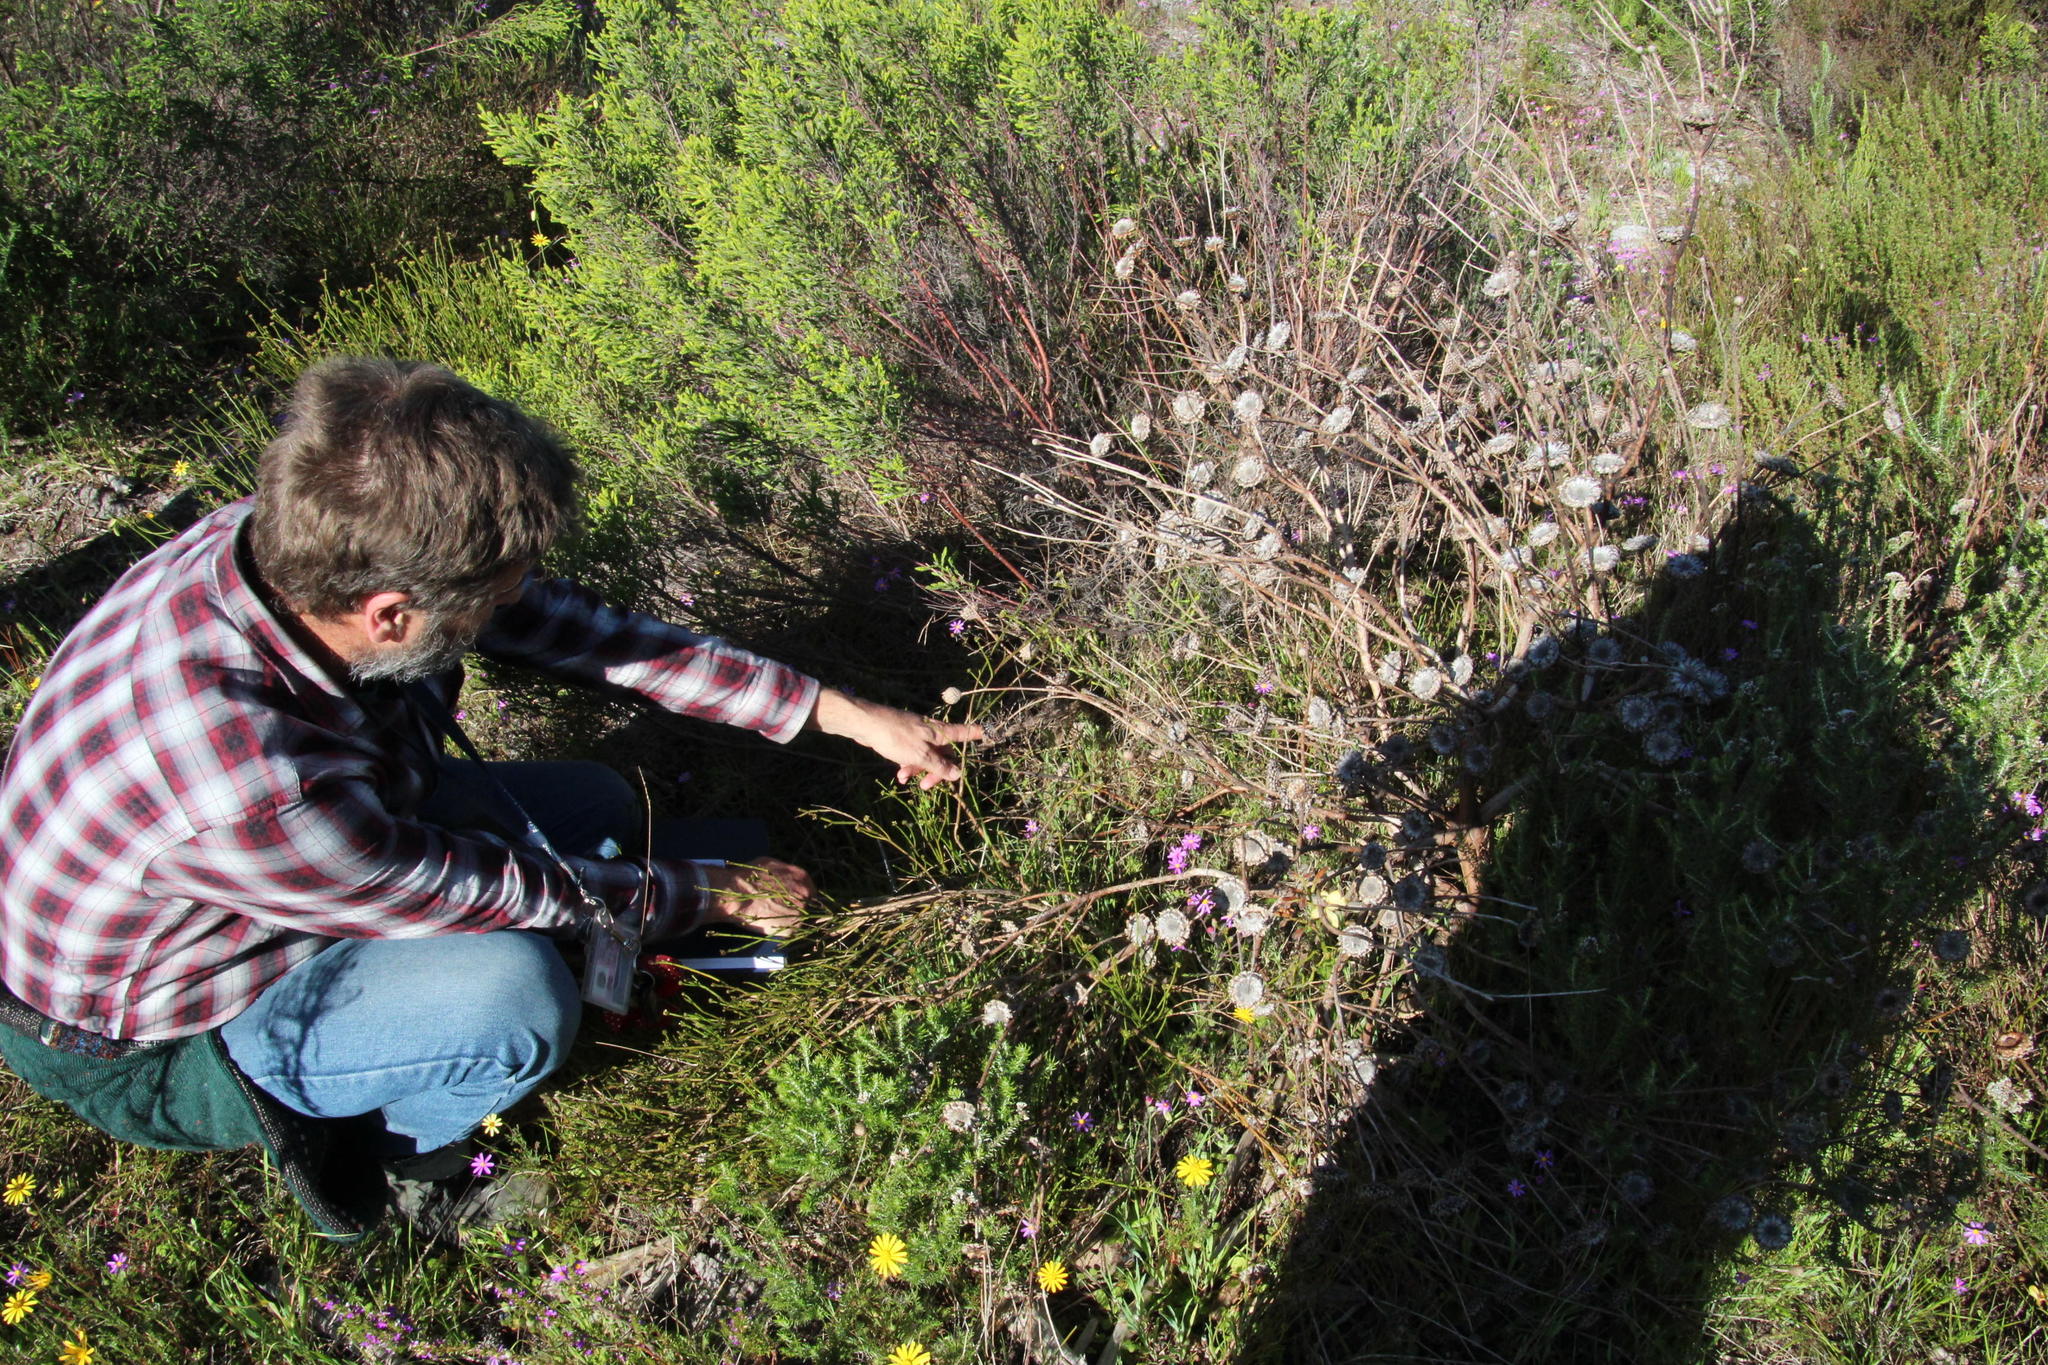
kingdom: Plantae
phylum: Tracheophyta
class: Magnoliopsida
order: Proteales
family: Proteaceae
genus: Protea
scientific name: Protea scolymocephala
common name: Thistle sugarbush
